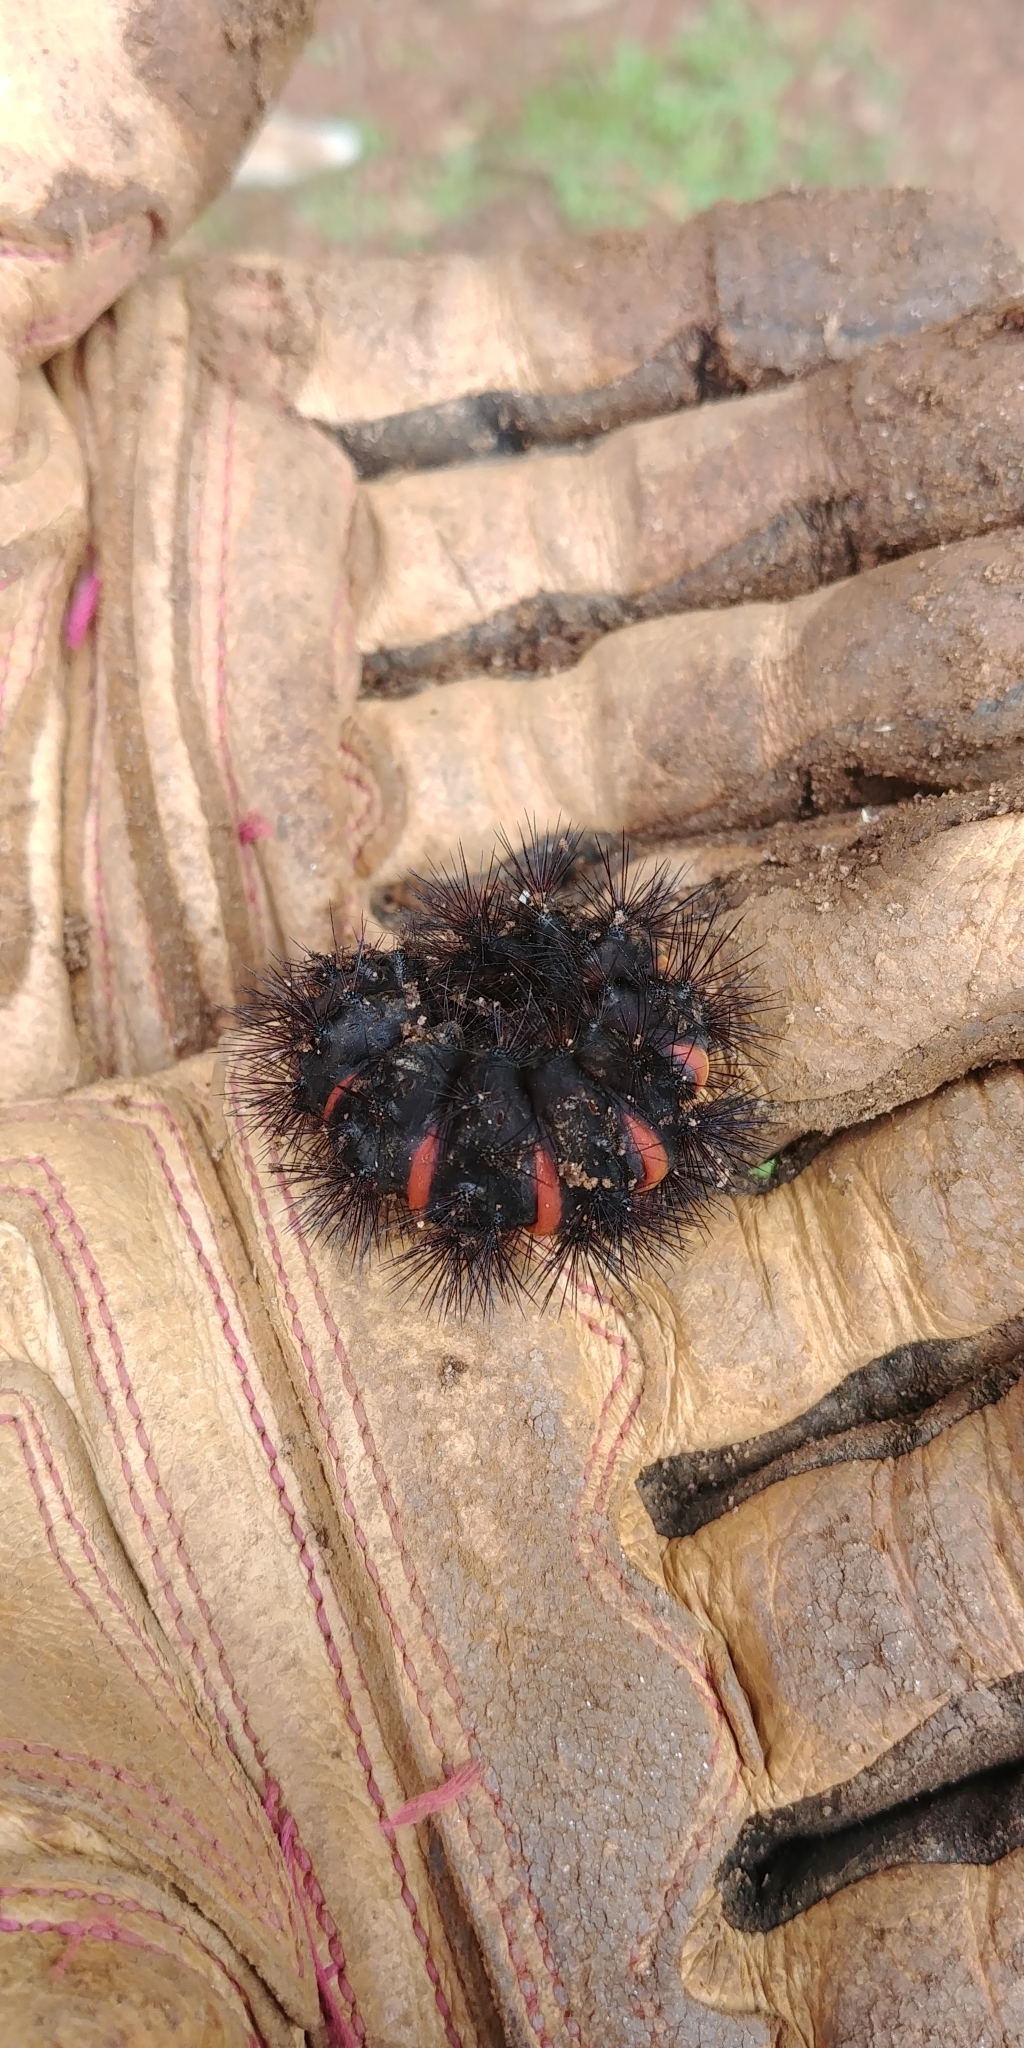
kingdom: Animalia
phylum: Arthropoda
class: Insecta
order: Lepidoptera
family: Erebidae
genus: Hypercompe
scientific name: Hypercompe scribonia
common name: Giant leopard moth
